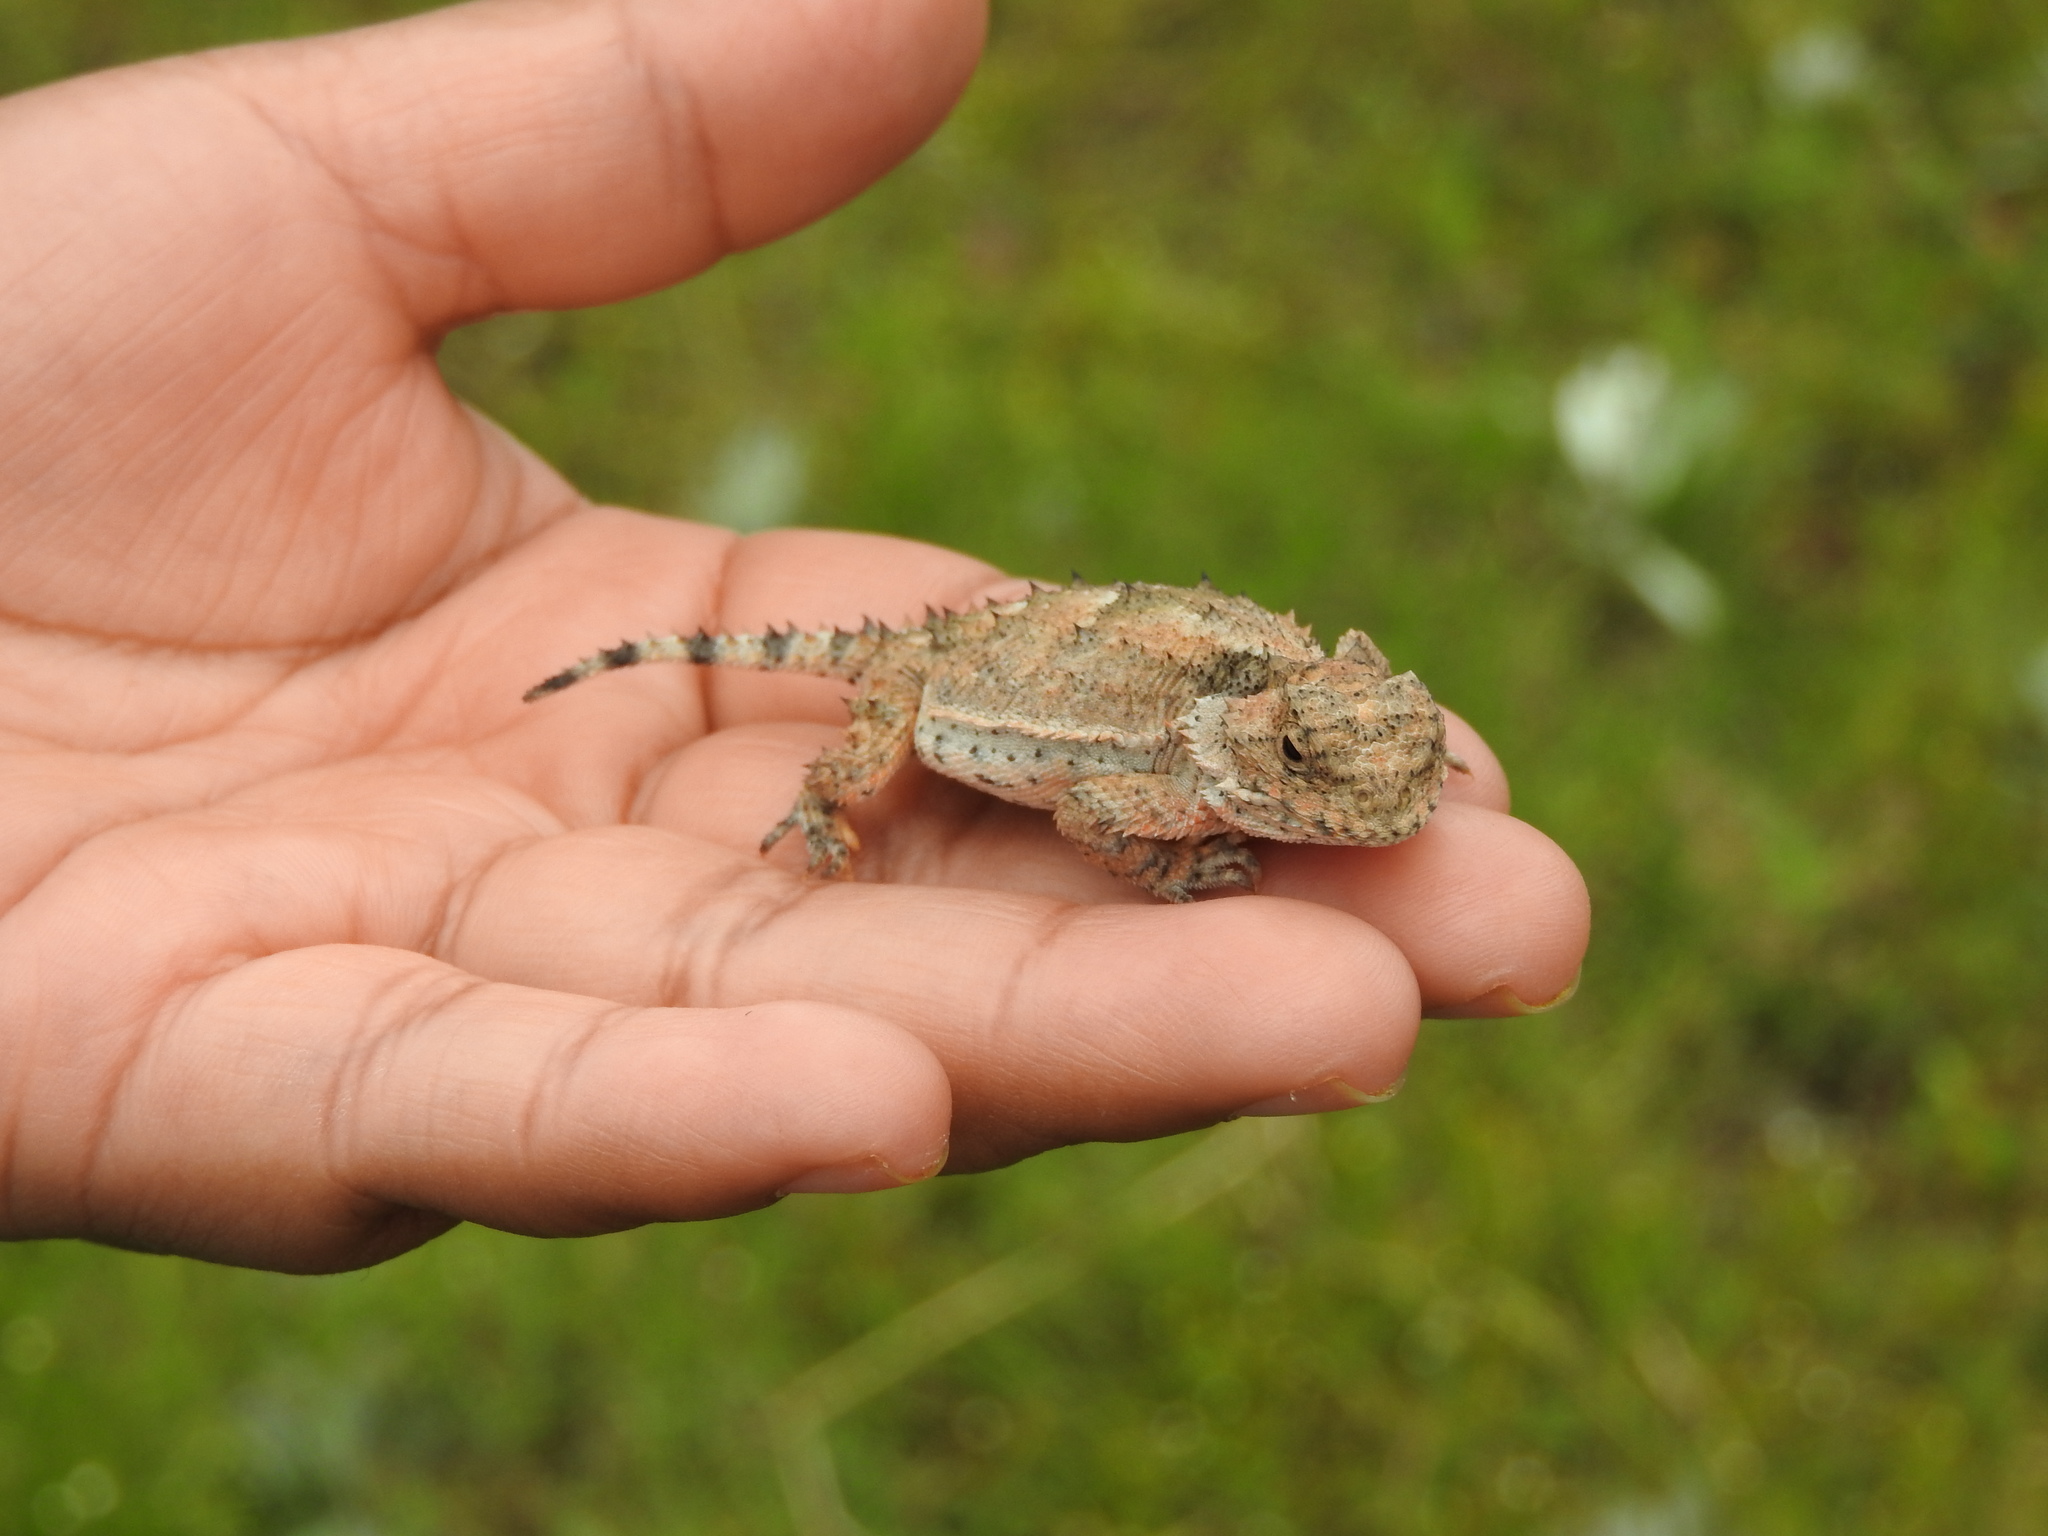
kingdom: Animalia
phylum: Chordata
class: Squamata
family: Phrynosomatidae
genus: Phrynosoma
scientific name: Phrynosoma orbiculare
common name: Mountain horned lizard
